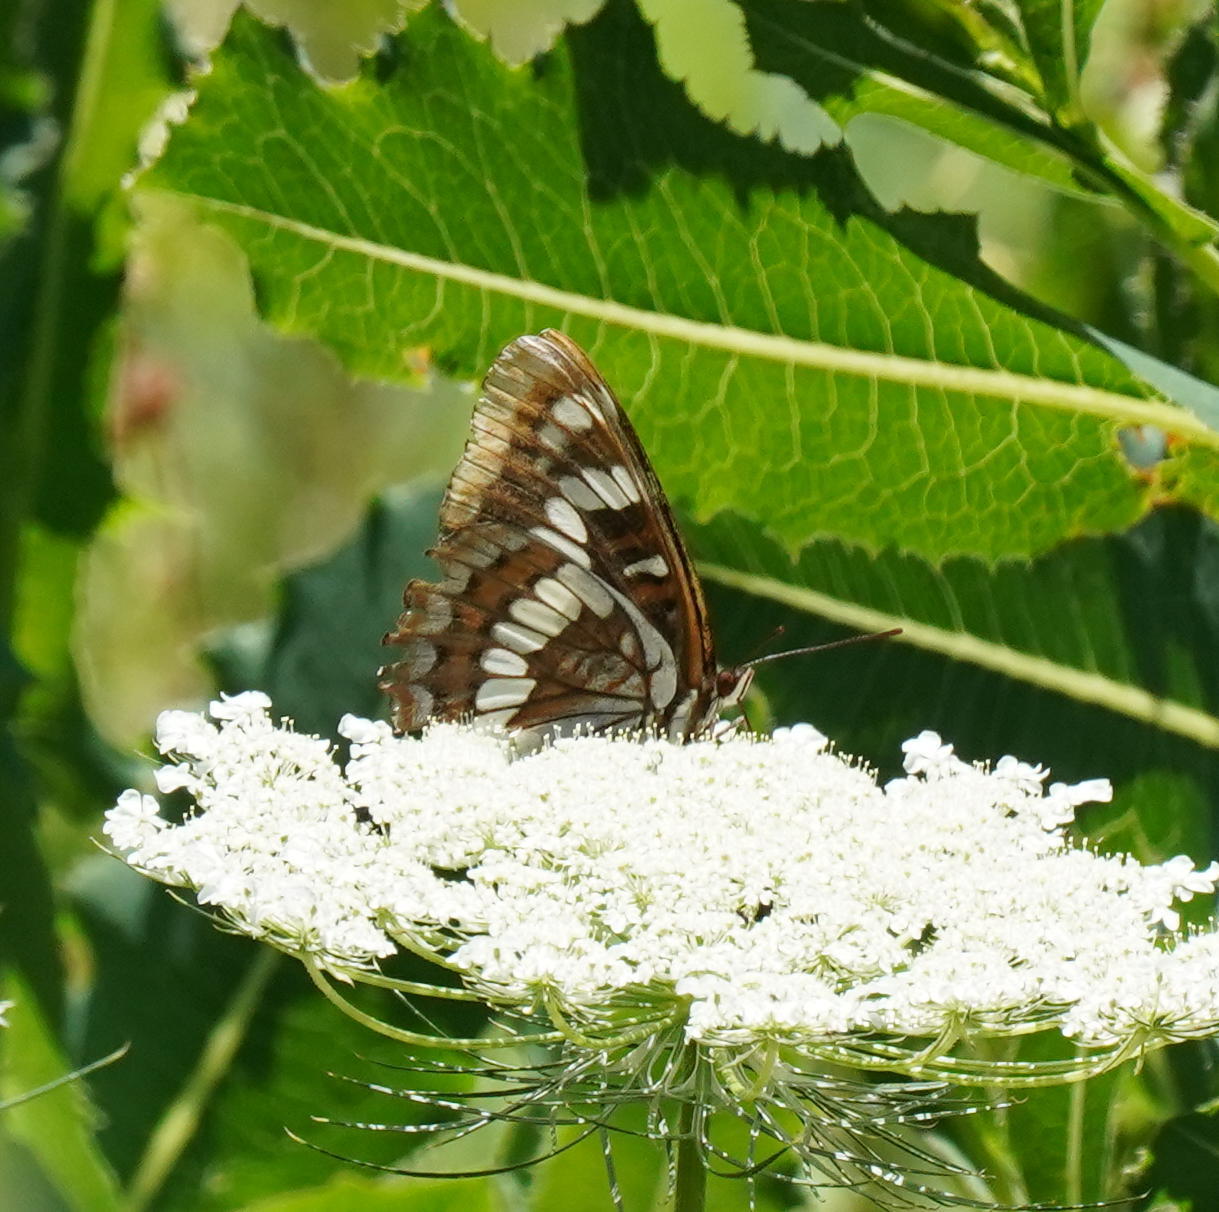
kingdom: Animalia
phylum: Arthropoda
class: Insecta
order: Lepidoptera
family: Nymphalidae
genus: Limenitis
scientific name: Limenitis lorquini
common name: Lorquin's admiral
